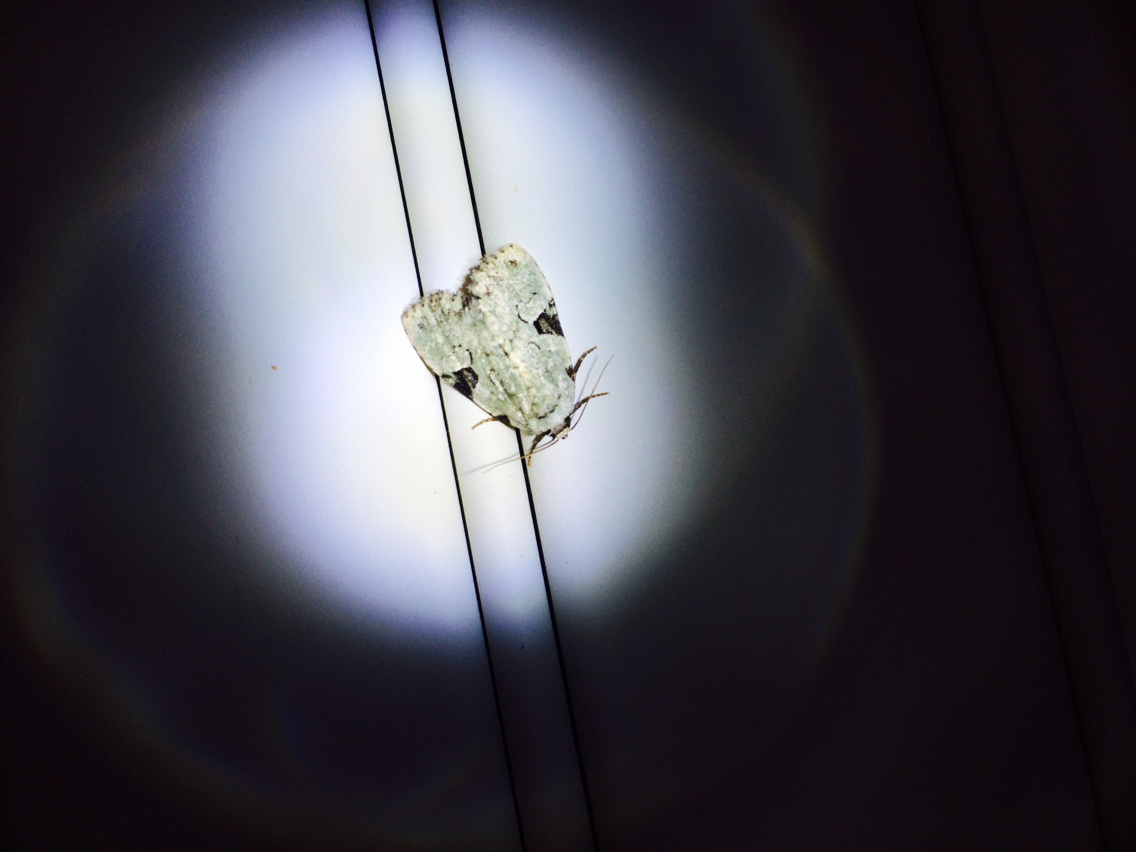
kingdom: Animalia
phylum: Arthropoda
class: Insecta
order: Lepidoptera
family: Noctuidae
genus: Leuconycta
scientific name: Leuconycta diphteroides
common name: Green leuconycta moth
